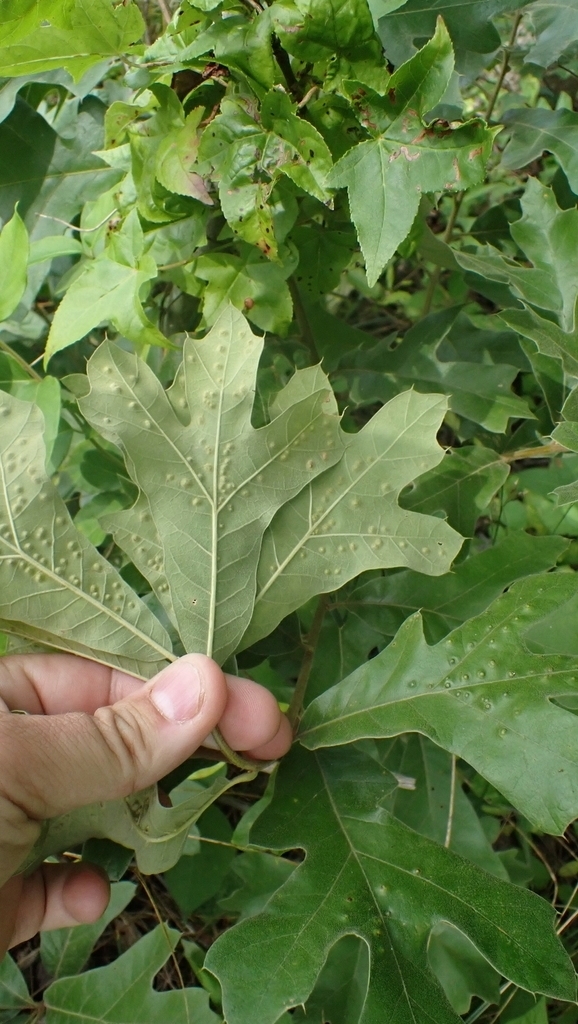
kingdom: Animalia
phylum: Arthropoda
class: Insecta
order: Hymenoptera
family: Cynipidae
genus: Callirhytis
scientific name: Callirhytis
